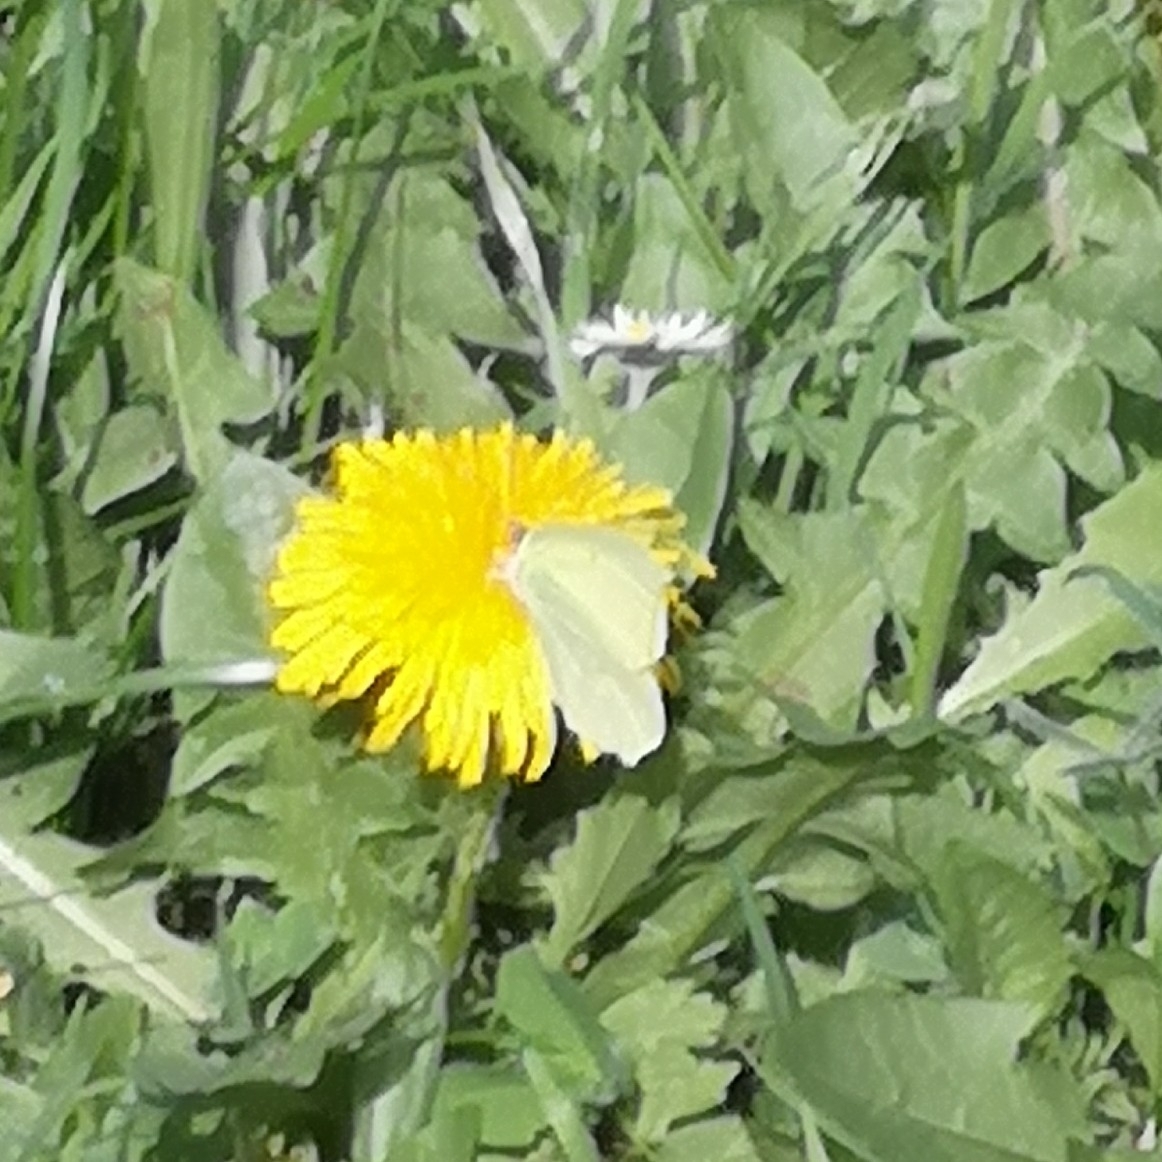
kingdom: Animalia
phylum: Arthropoda
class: Insecta
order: Lepidoptera
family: Pieridae
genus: Gonepteryx
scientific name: Gonepteryx rhamni
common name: Brimstone
